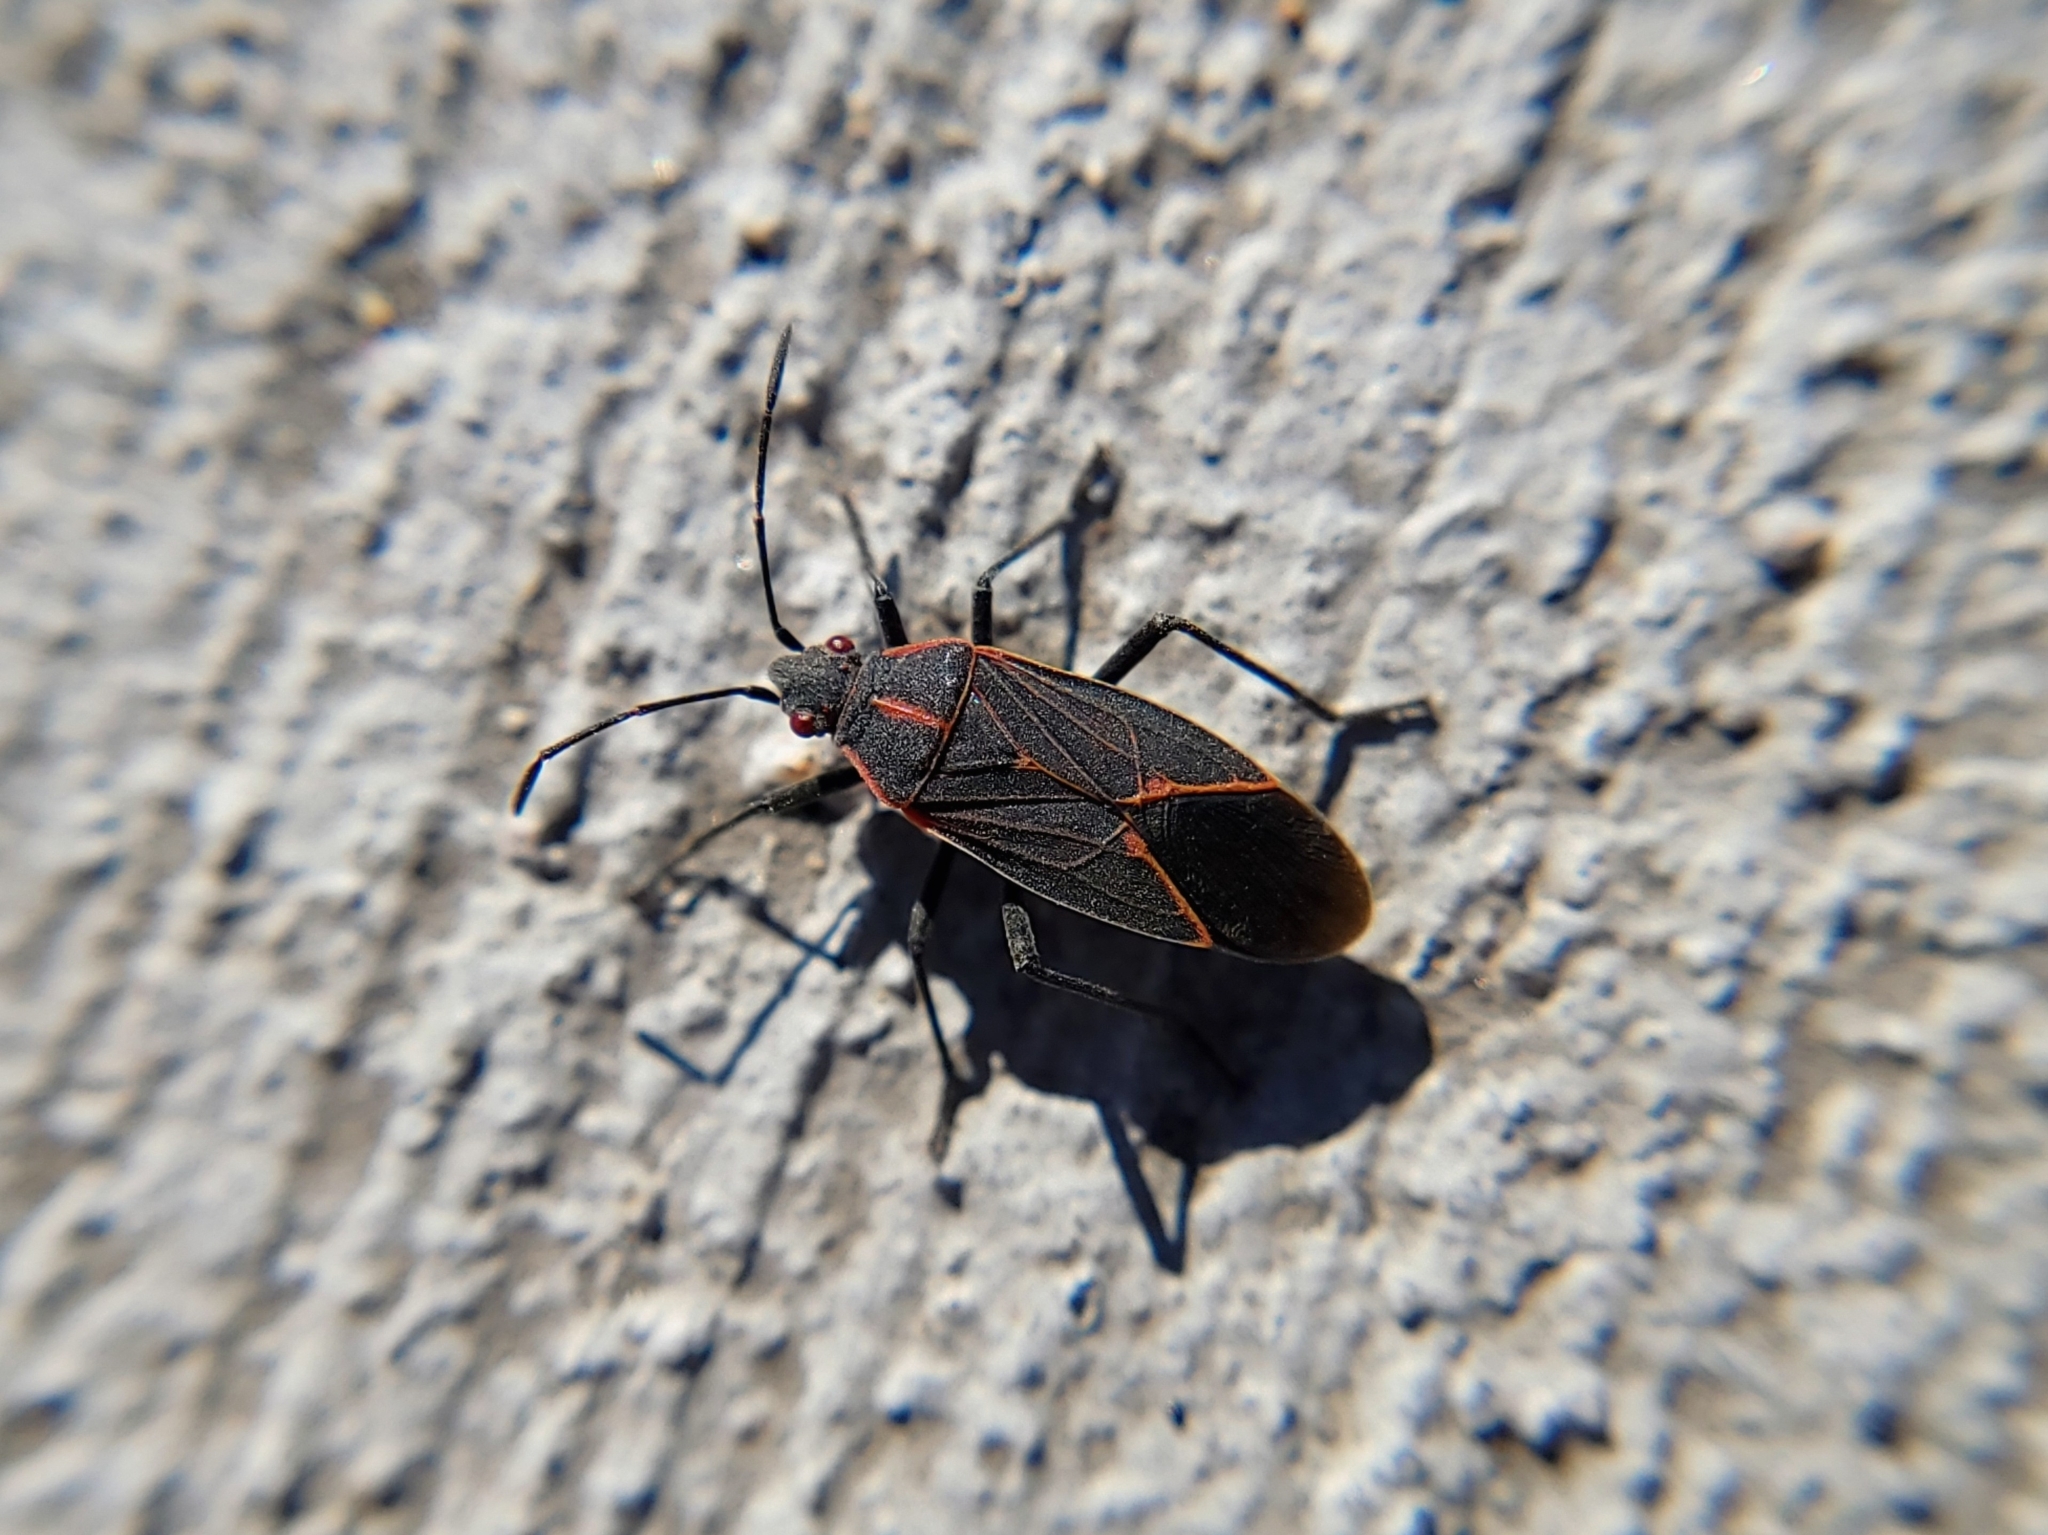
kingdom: Animalia
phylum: Arthropoda
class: Insecta
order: Hemiptera
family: Rhopalidae
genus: Boisea
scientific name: Boisea rubrolineata
